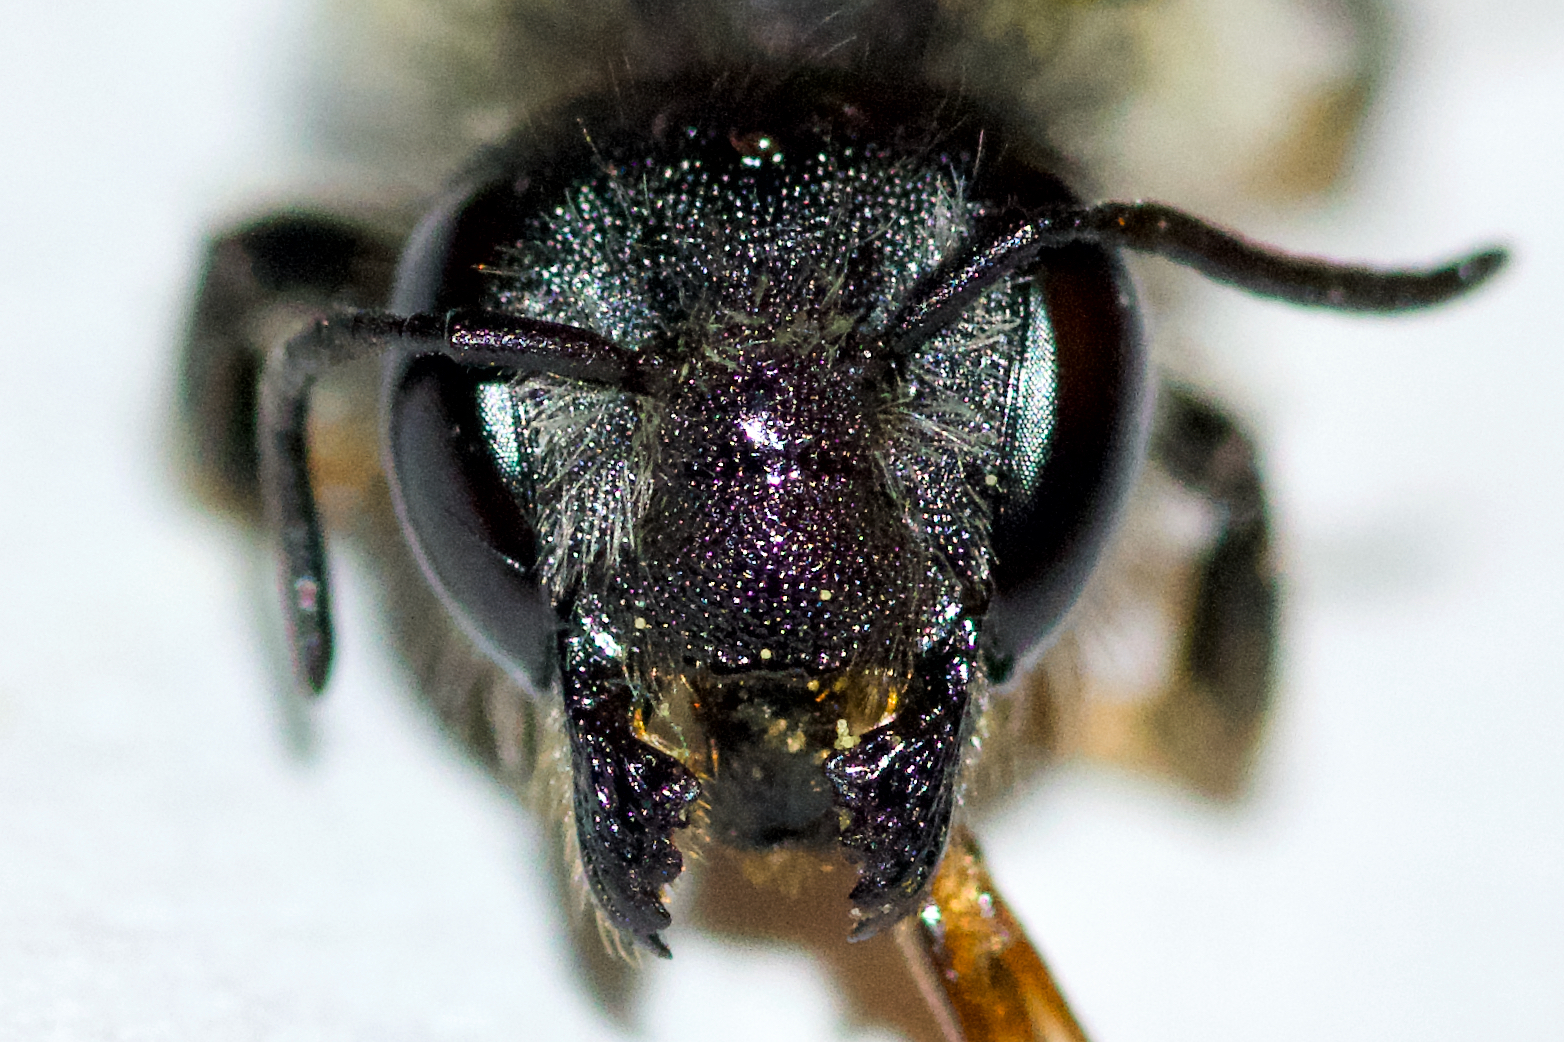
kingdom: Animalia
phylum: Arthropoda
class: Insecta
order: Hymenoptera
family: Megachilidae
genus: Megachile
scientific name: Megachile relativa
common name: Golden-tailed leafcutter
